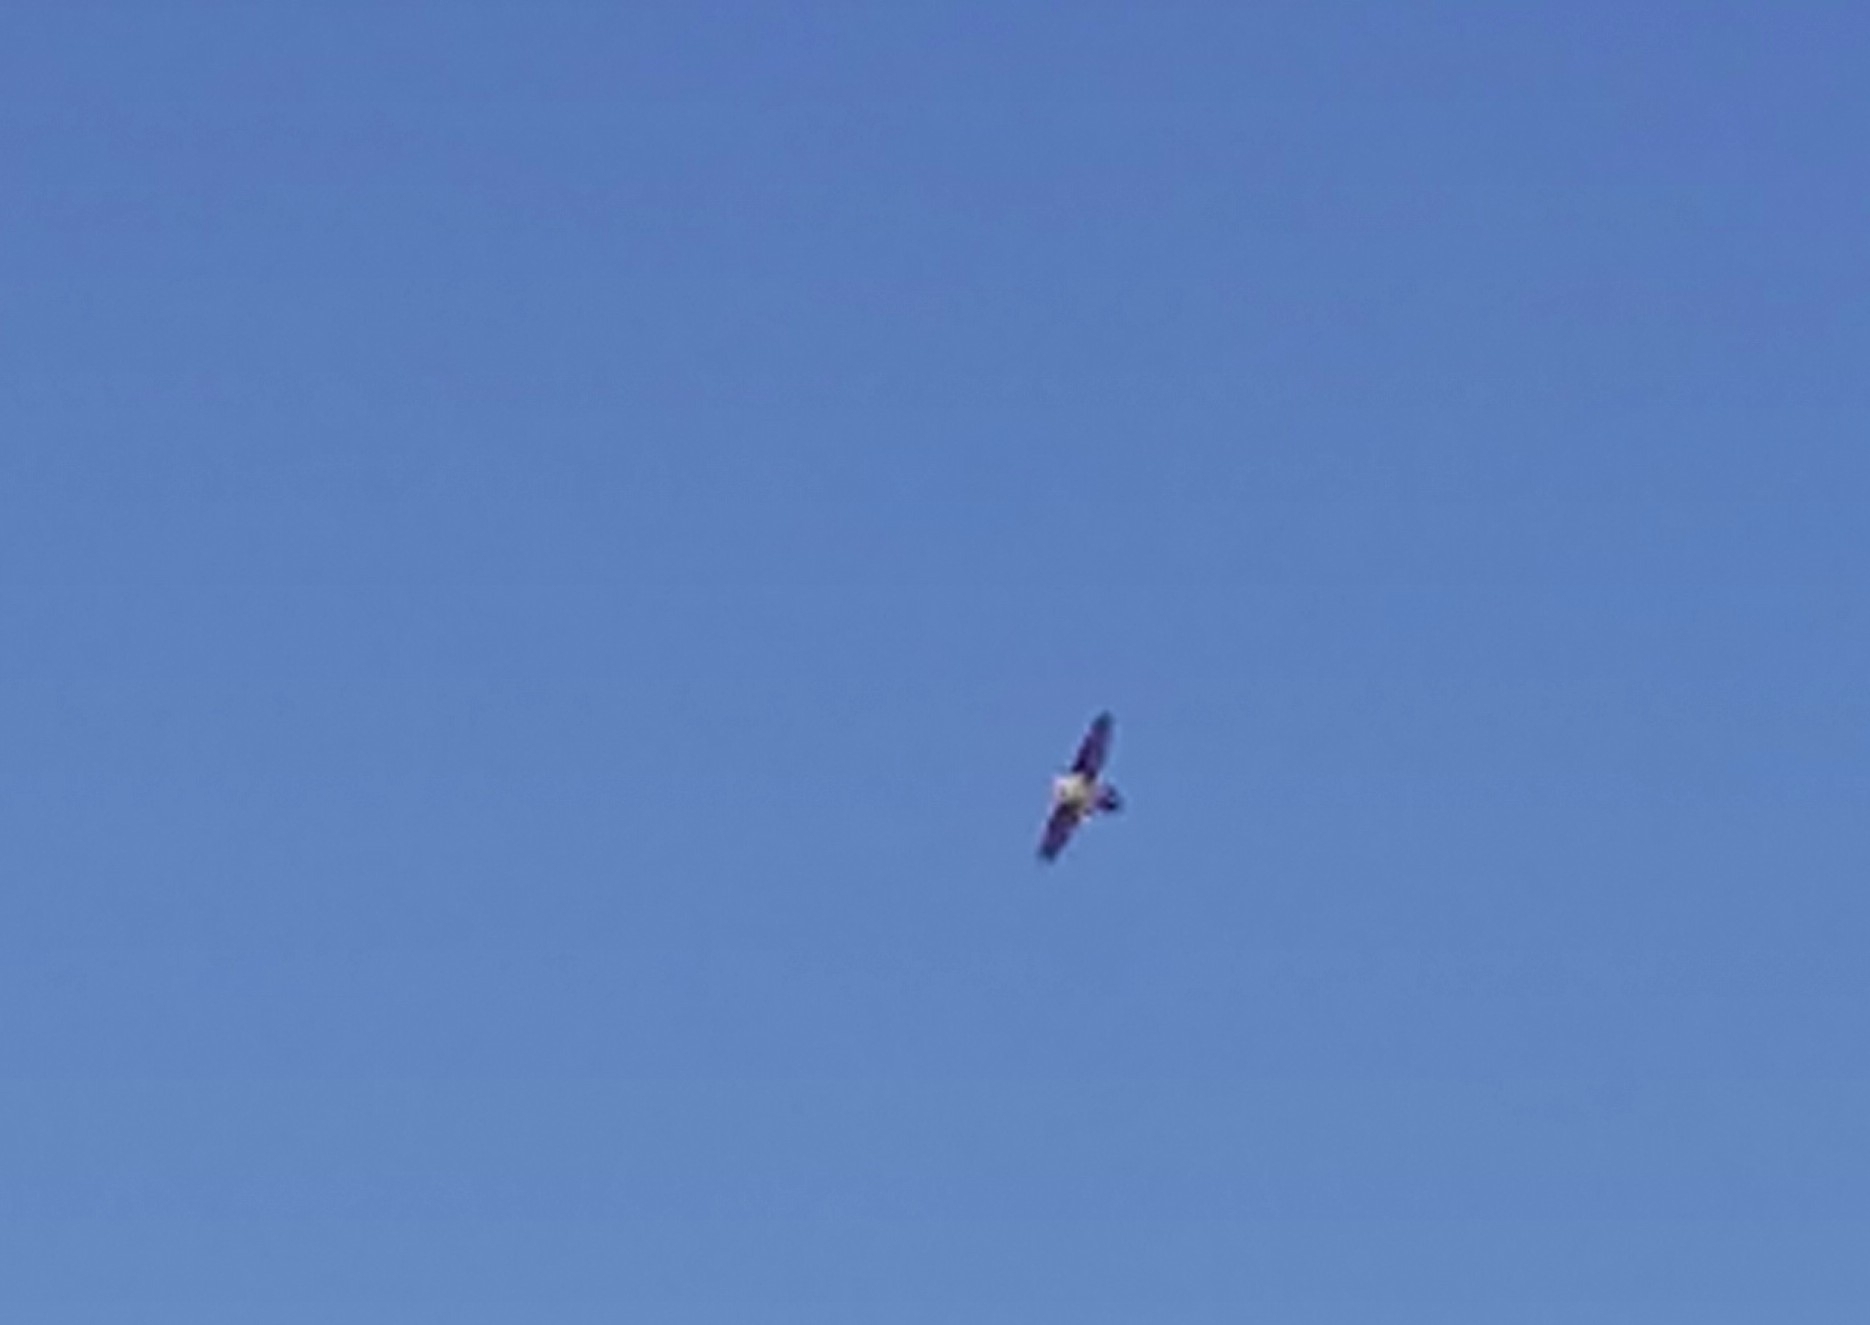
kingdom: Animalia
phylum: Chordata
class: Aves
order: Accipitriformes
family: Accipitridae
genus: Gypaetus
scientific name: Gypaetus barbatus
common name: Bearded vulture
